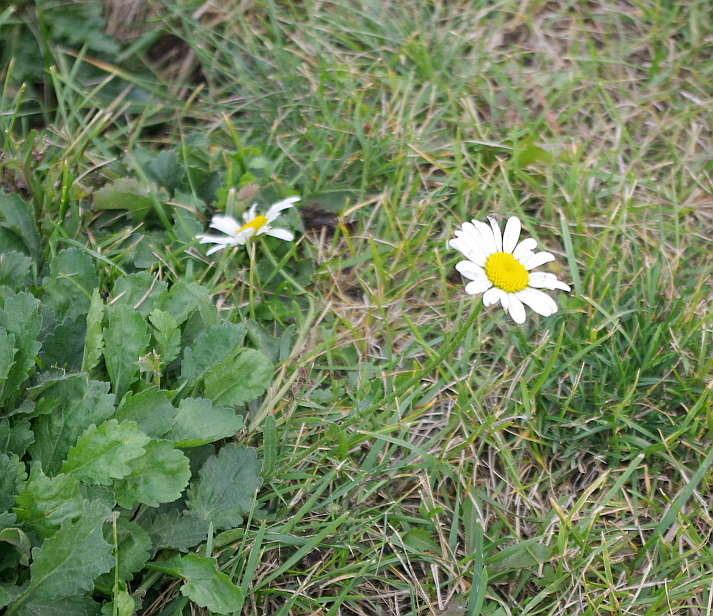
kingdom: Plantae
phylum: Tracheophyta
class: Magnoliopsida
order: Asterales
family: Asteraceae
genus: Leucanthemum
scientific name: Leucanthemum vulgare
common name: Oxeye daisy
